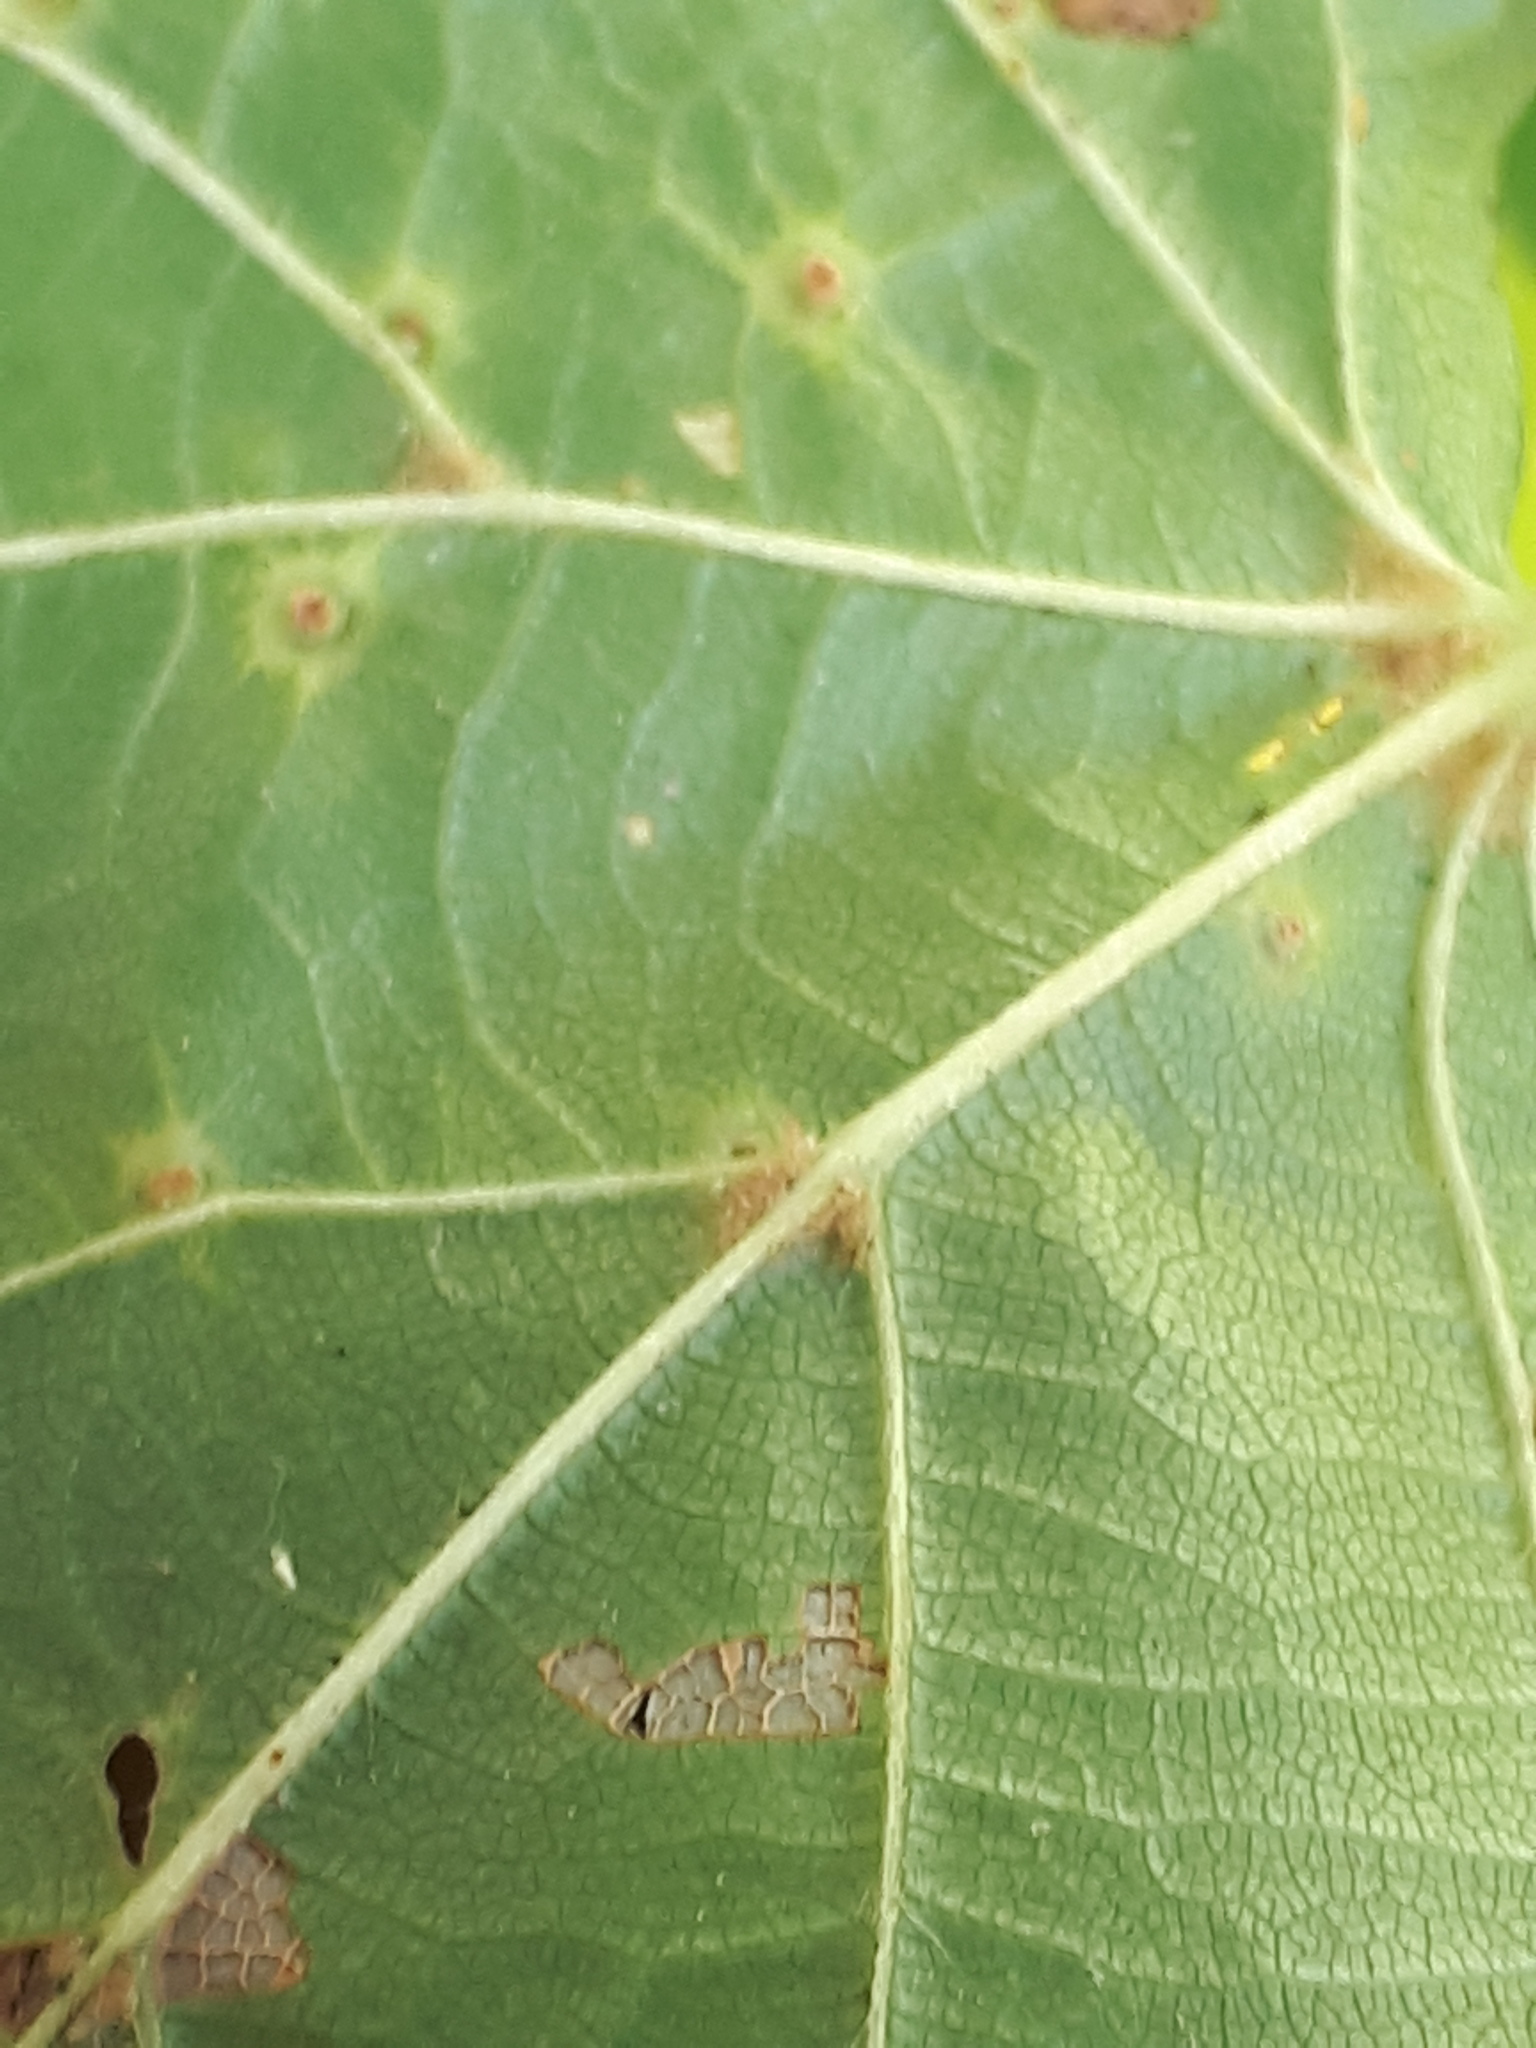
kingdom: Animalia
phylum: Arthropoda
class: Arachnida
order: Trombidiformes
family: Eriophyidae
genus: Eriophyes
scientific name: Eriophyes tiliae
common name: Red nail gall mite
